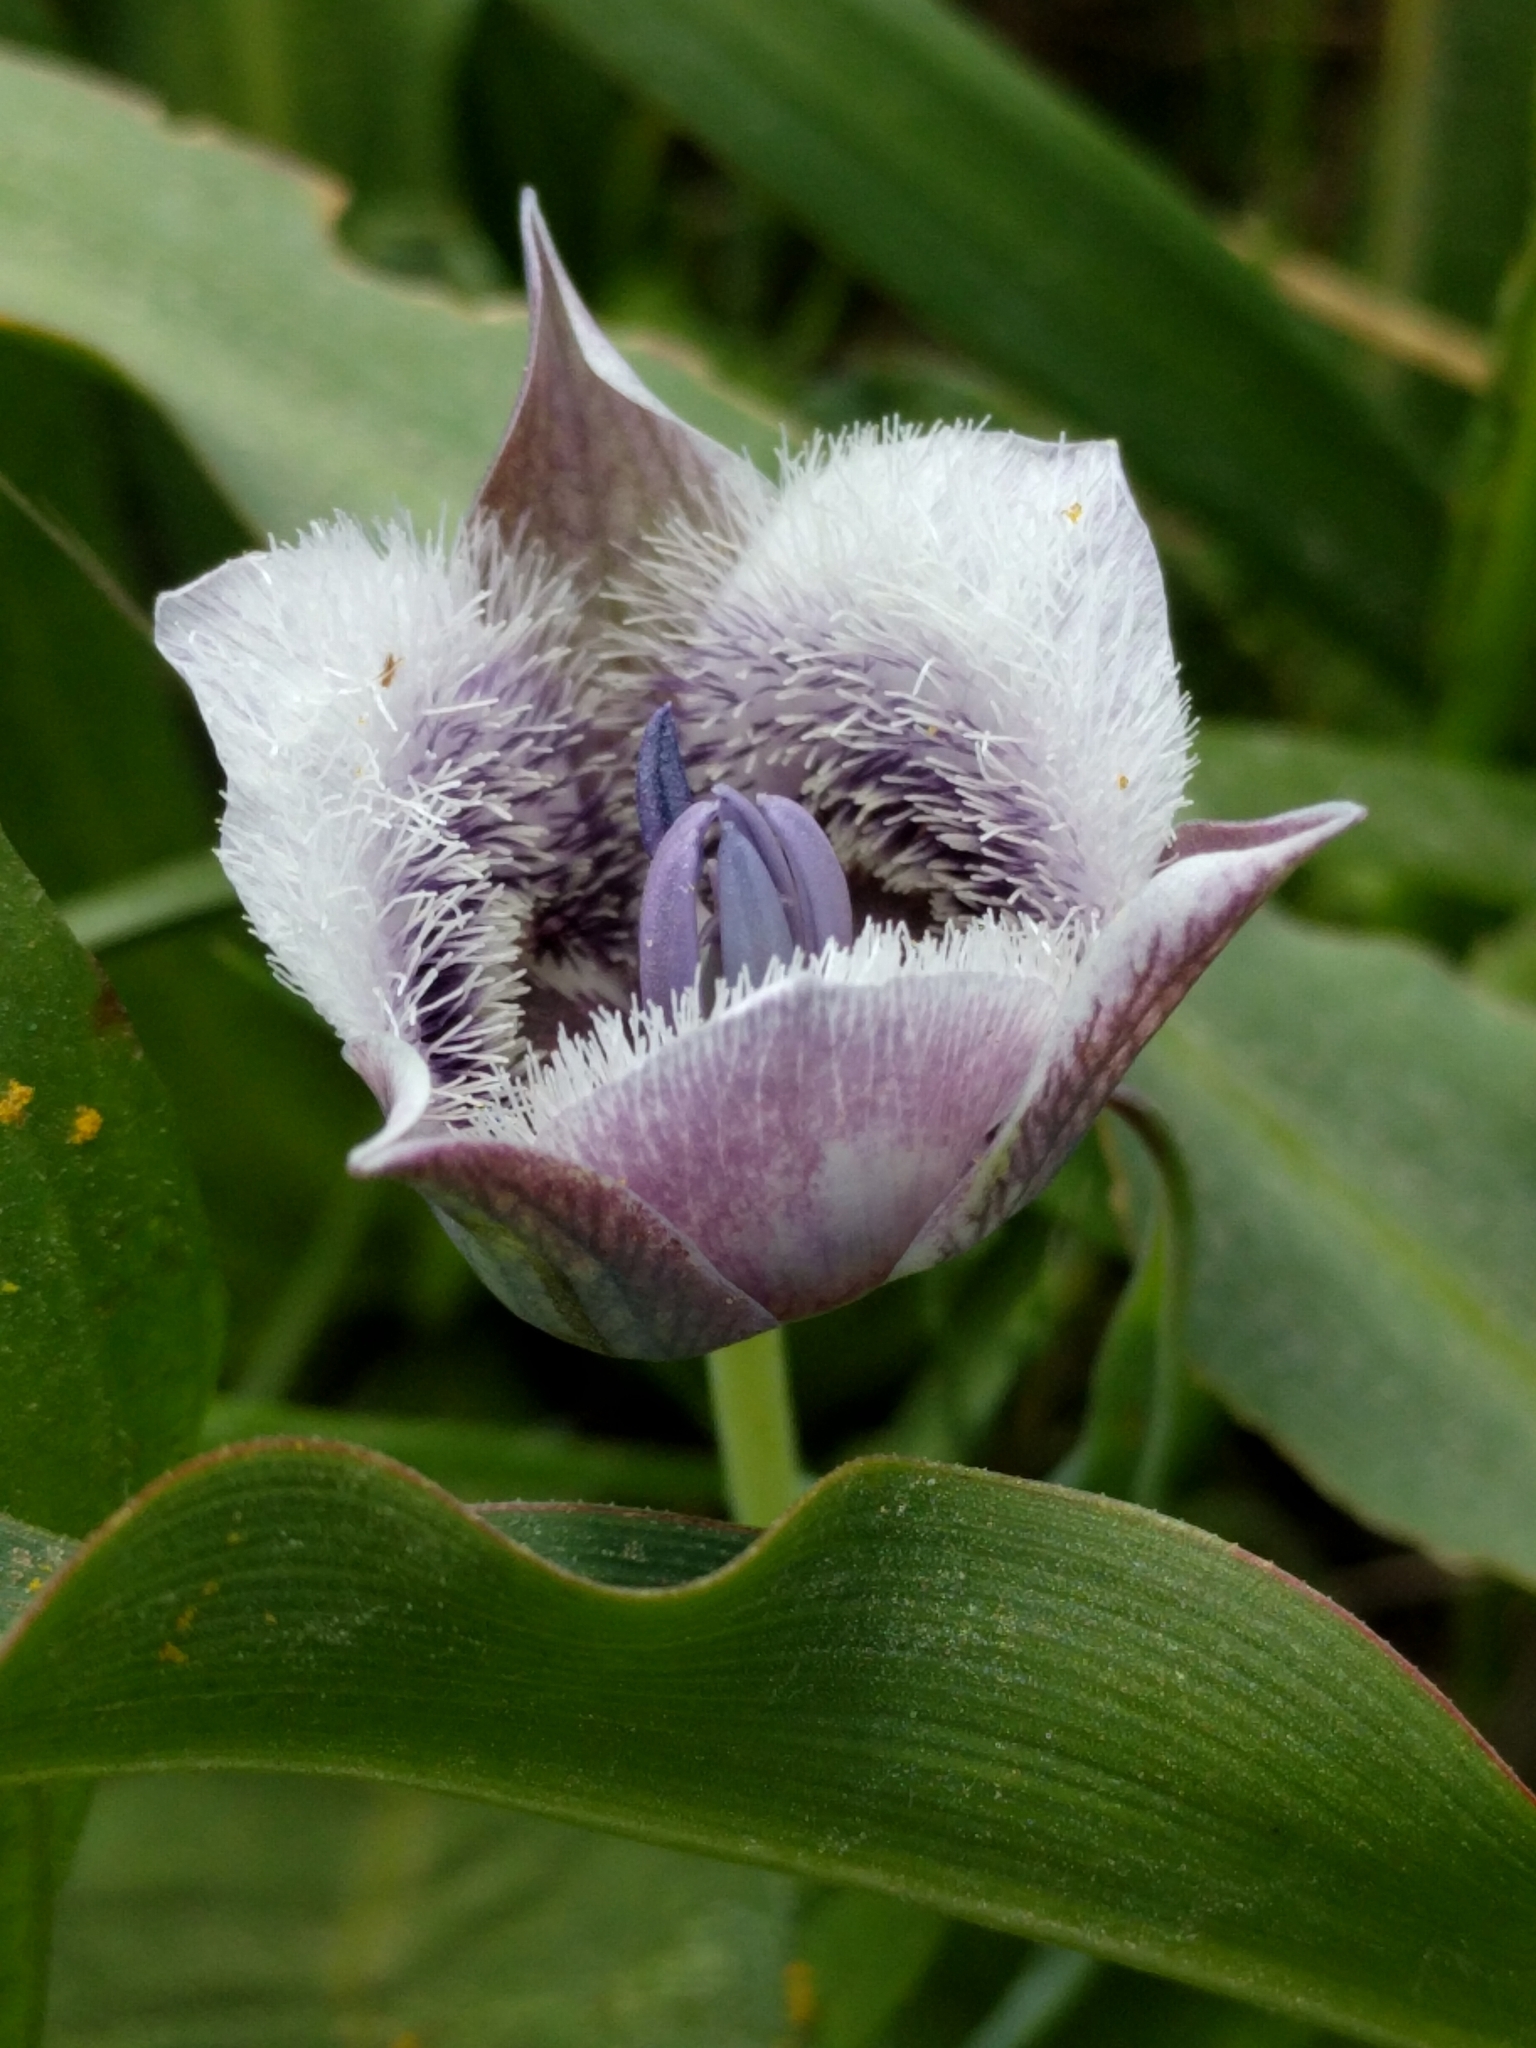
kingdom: Plantae
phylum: Tracheophyta
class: Liliopsida
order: Liliales
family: Liliaceae
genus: Calochortus
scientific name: Calochortus tolmiei
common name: Pussy-ears
